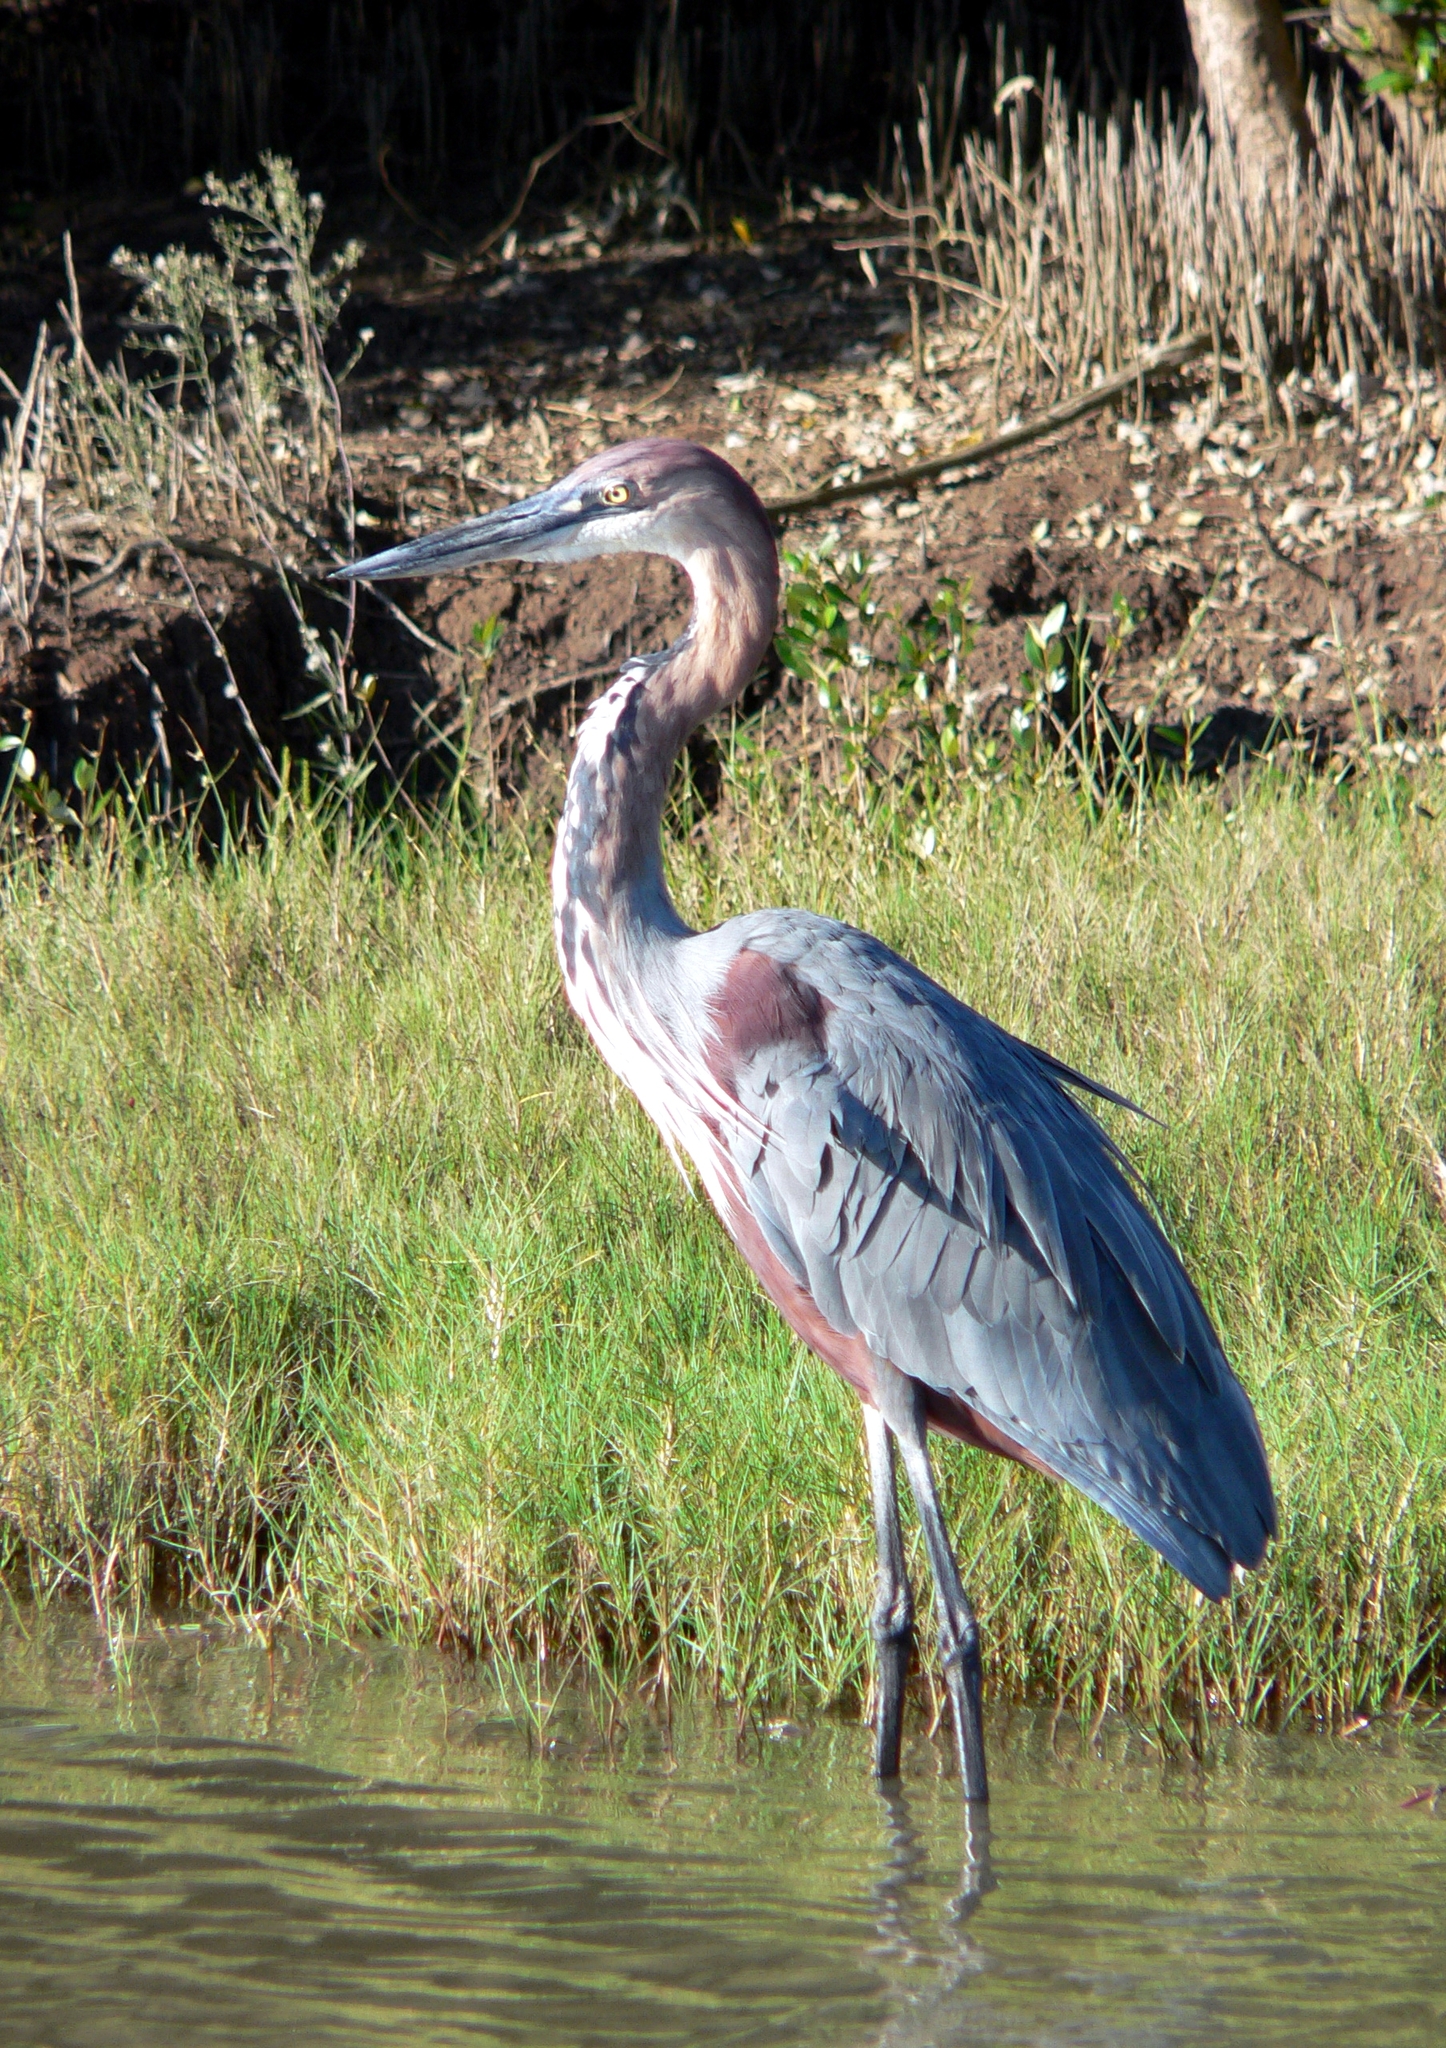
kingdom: Animalia
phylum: Chordata
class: Aves
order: Pelecaniformes
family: Ardeidae
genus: Ardea
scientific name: Ardea goliath
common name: Goliath heron
